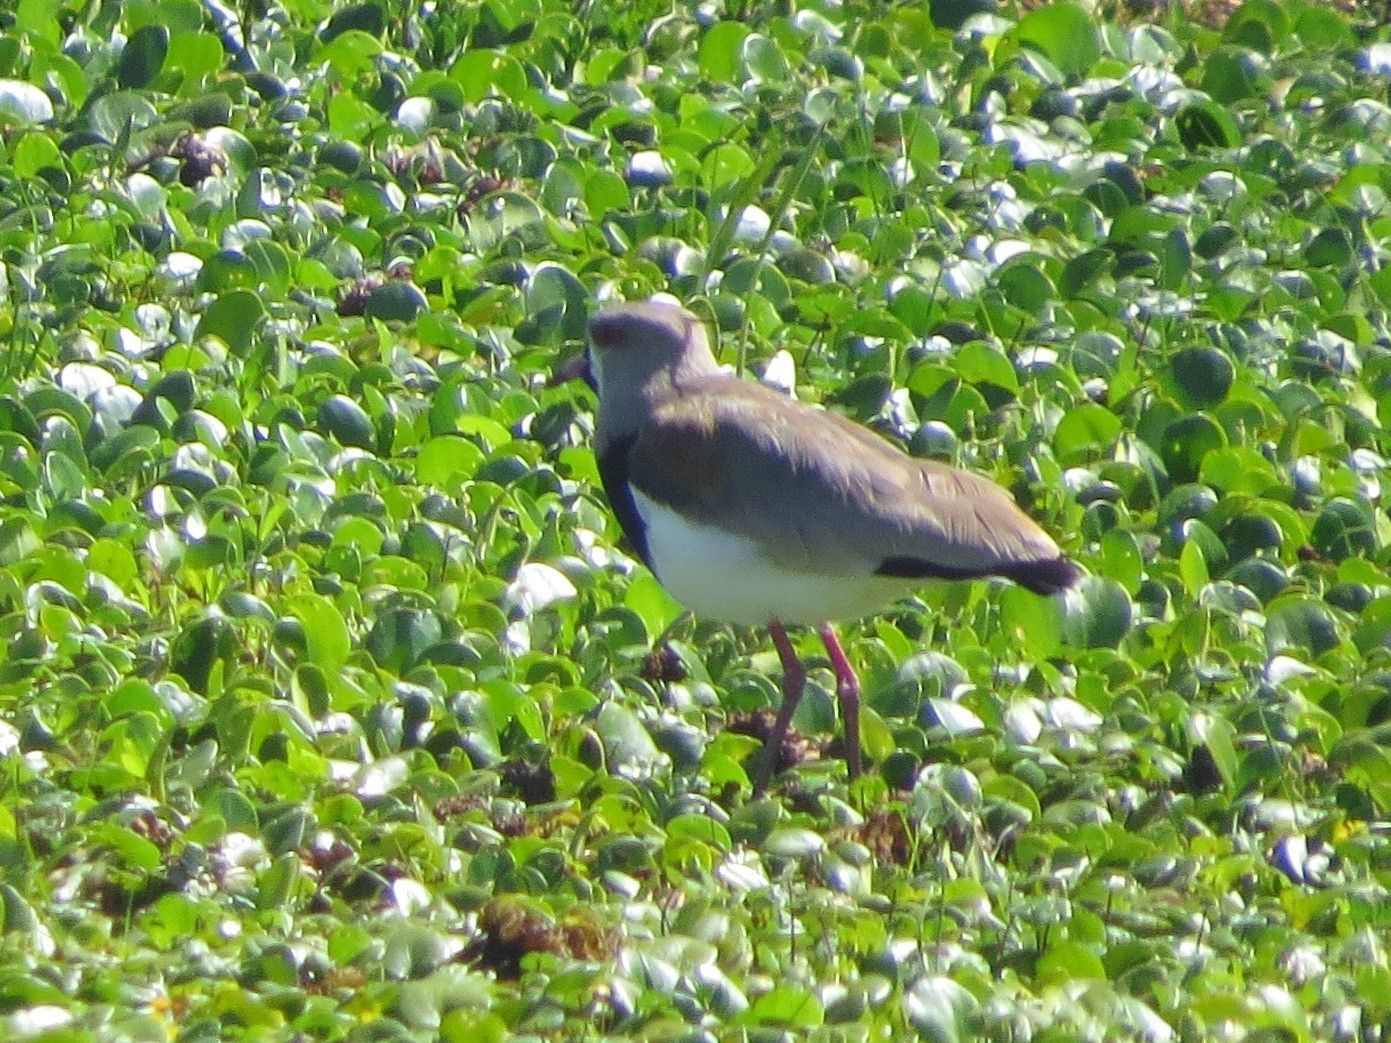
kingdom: Animalia
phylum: Chordata
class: Aves
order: Charadriiformes
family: Charadriidae
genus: Vanellus
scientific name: Vanellus chilensis
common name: Southern lapwing
